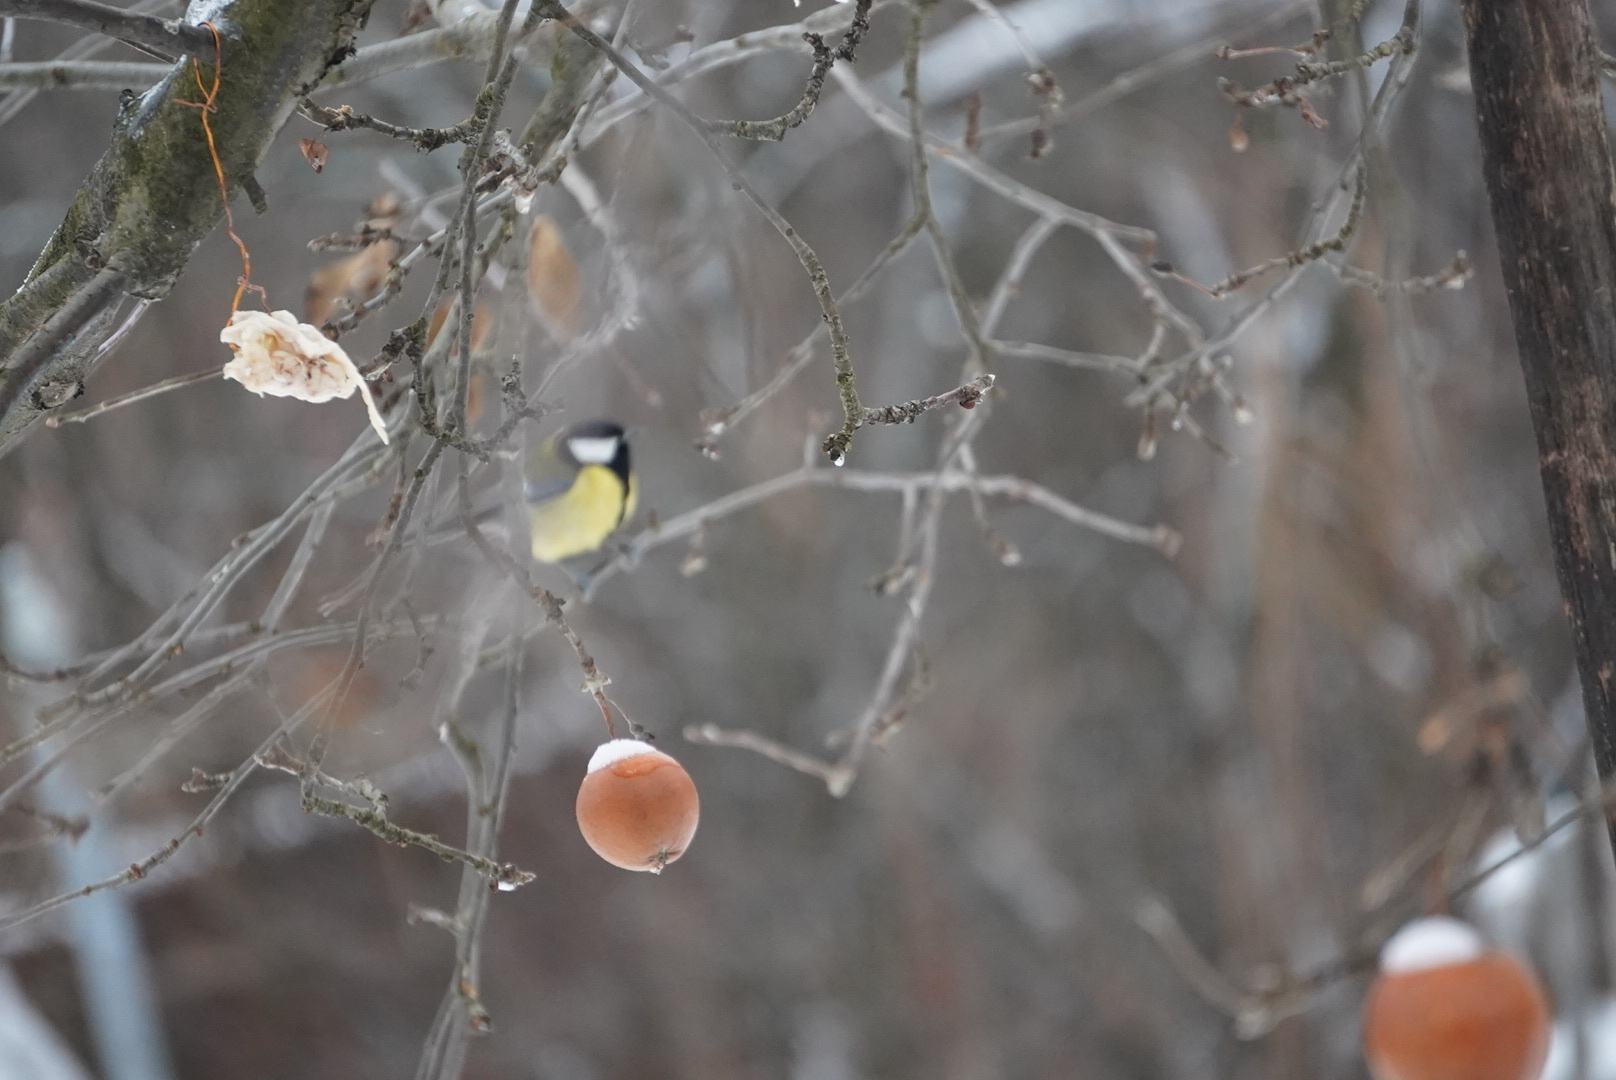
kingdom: Animalia
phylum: Chordata
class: Aves
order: Passeriformes
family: Paridae
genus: Parus
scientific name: Parus major
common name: Great tit
